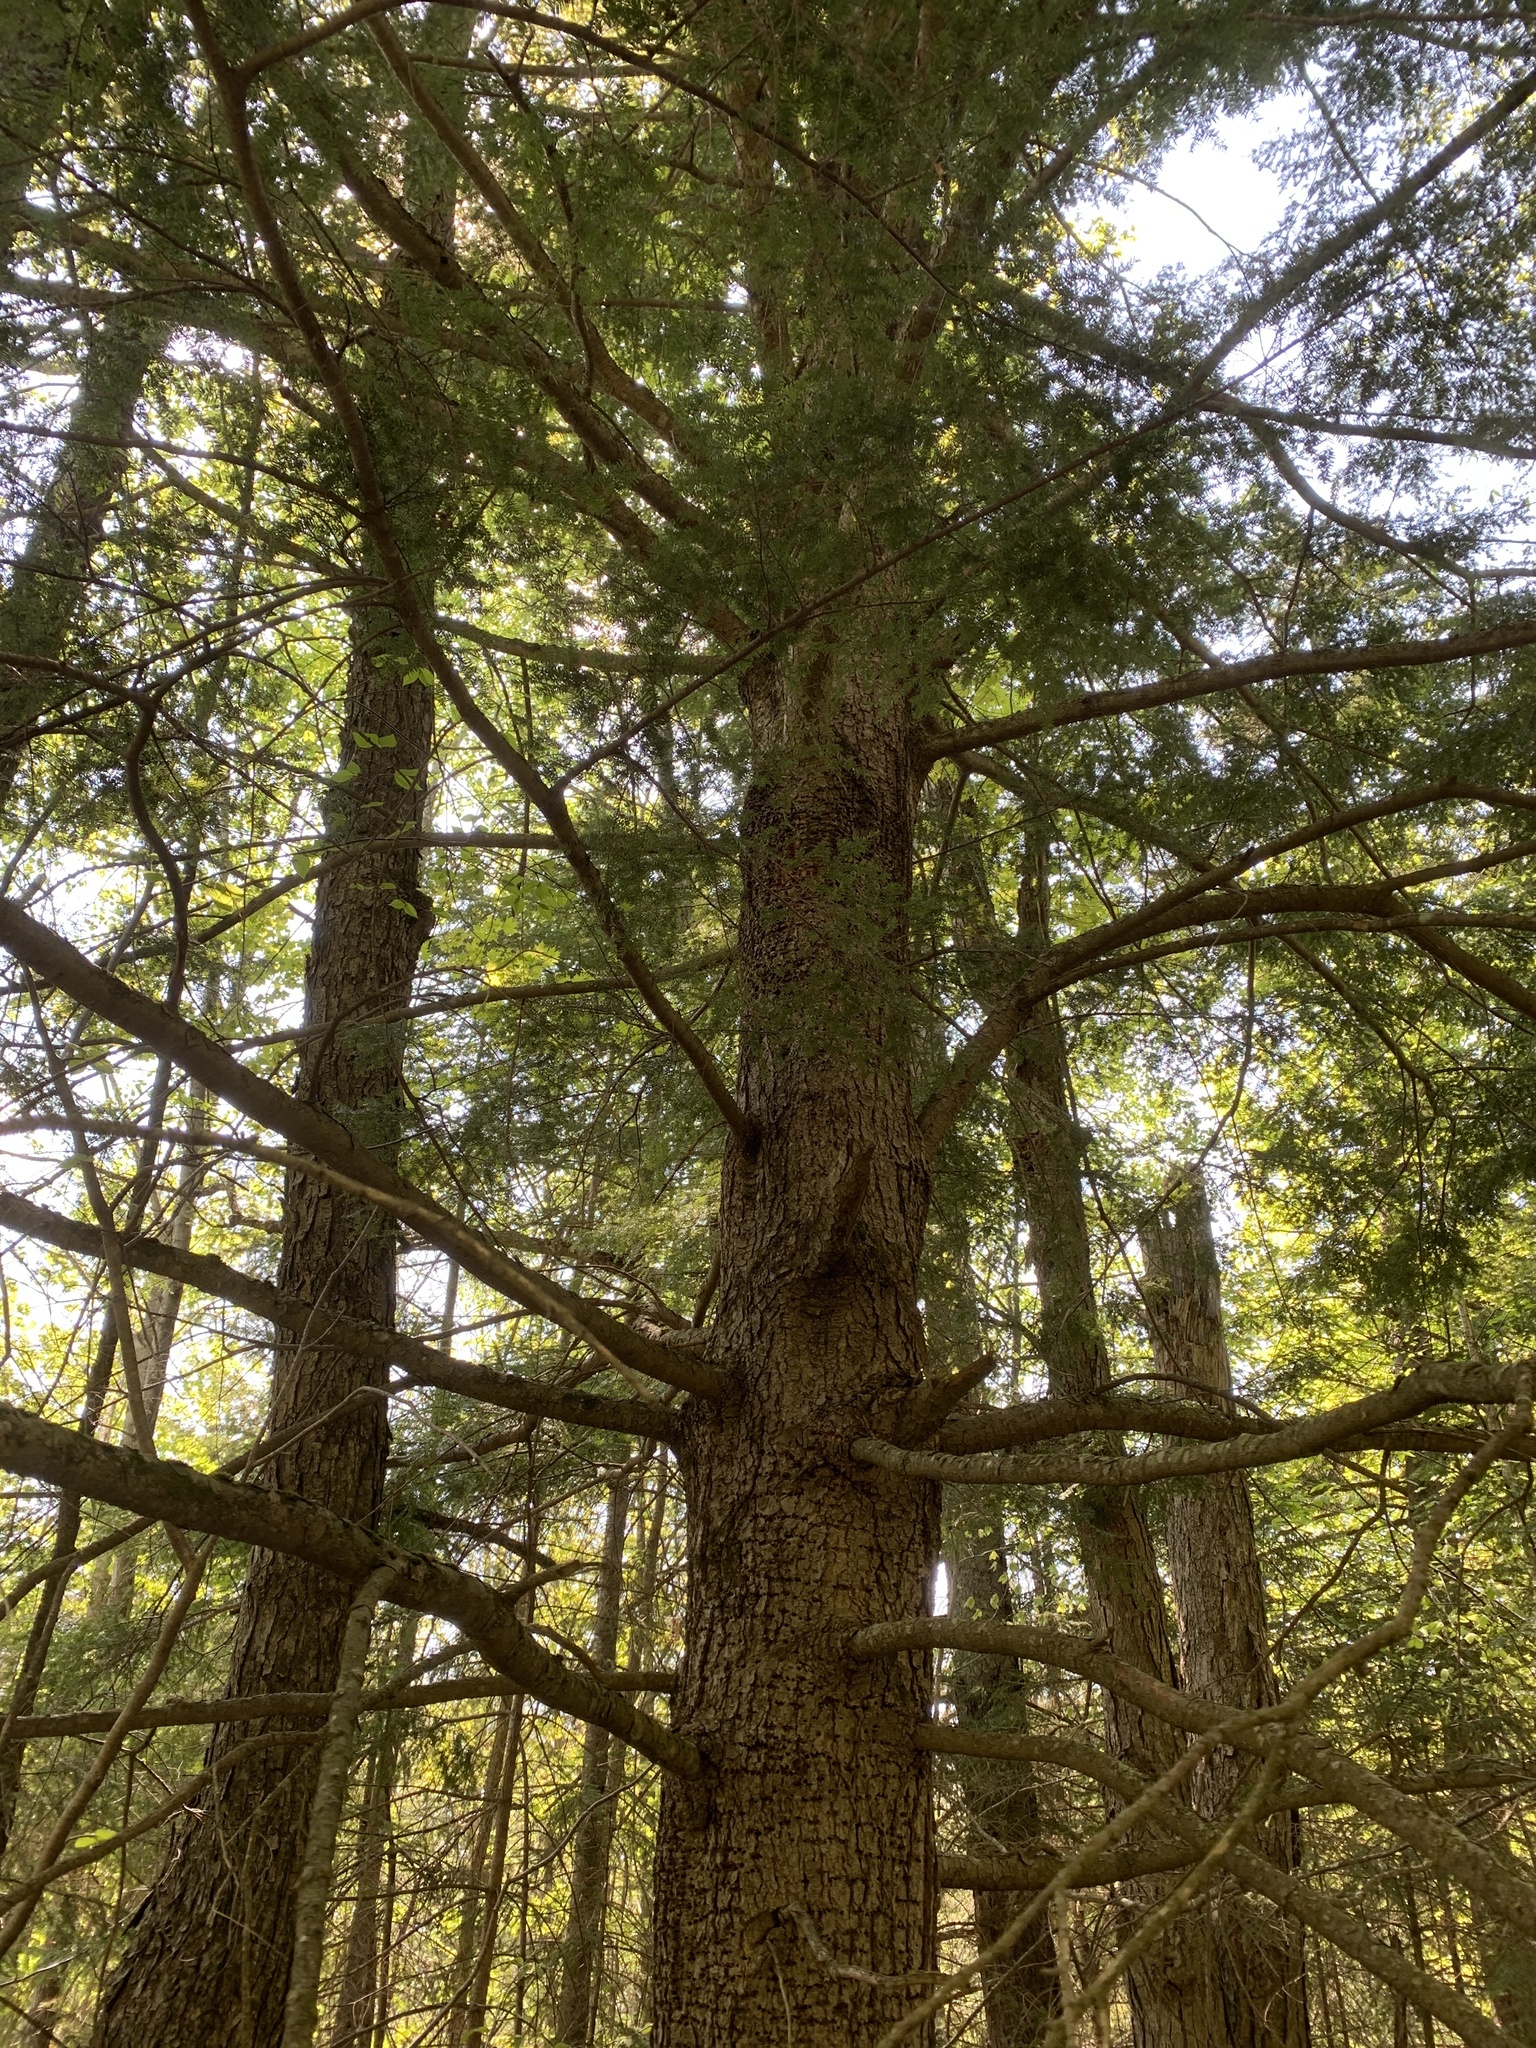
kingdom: Plantae
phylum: Tracheophyta
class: Pinopsida
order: Pinales
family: Pinaceae
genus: Tsuga
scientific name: Tsuga canadensis
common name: Eastern hemlock
